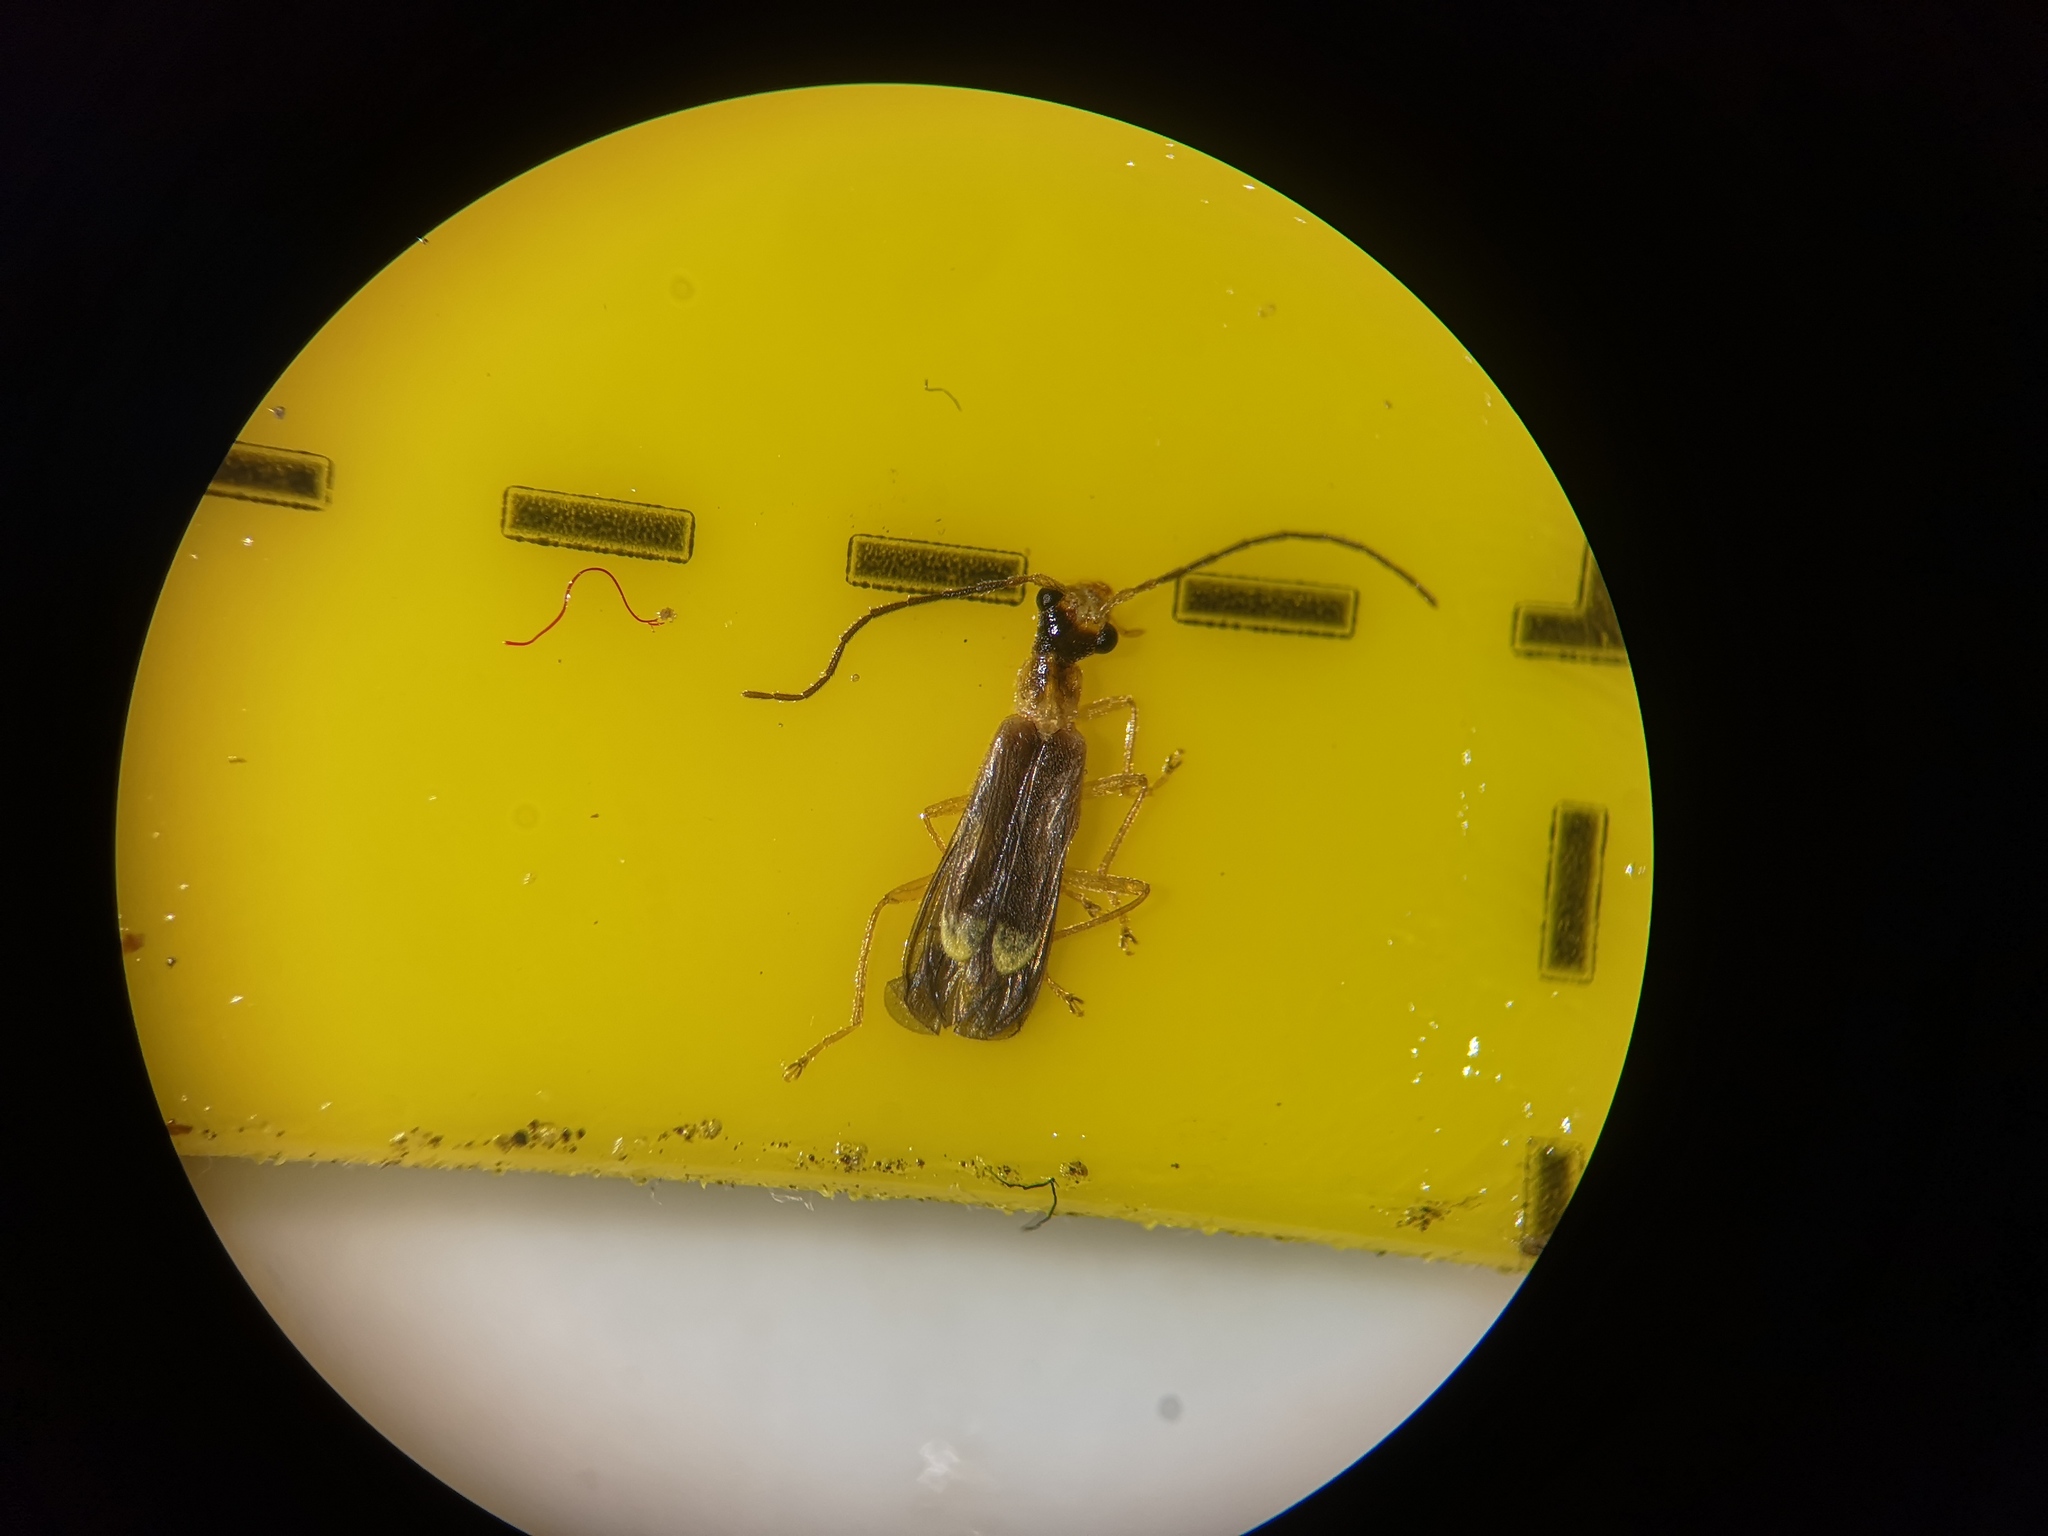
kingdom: Animalia
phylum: Arthropoda
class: Insecta
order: Coleoptera
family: Cantharidae
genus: Malthinus
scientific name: Malthinus flaveolus
